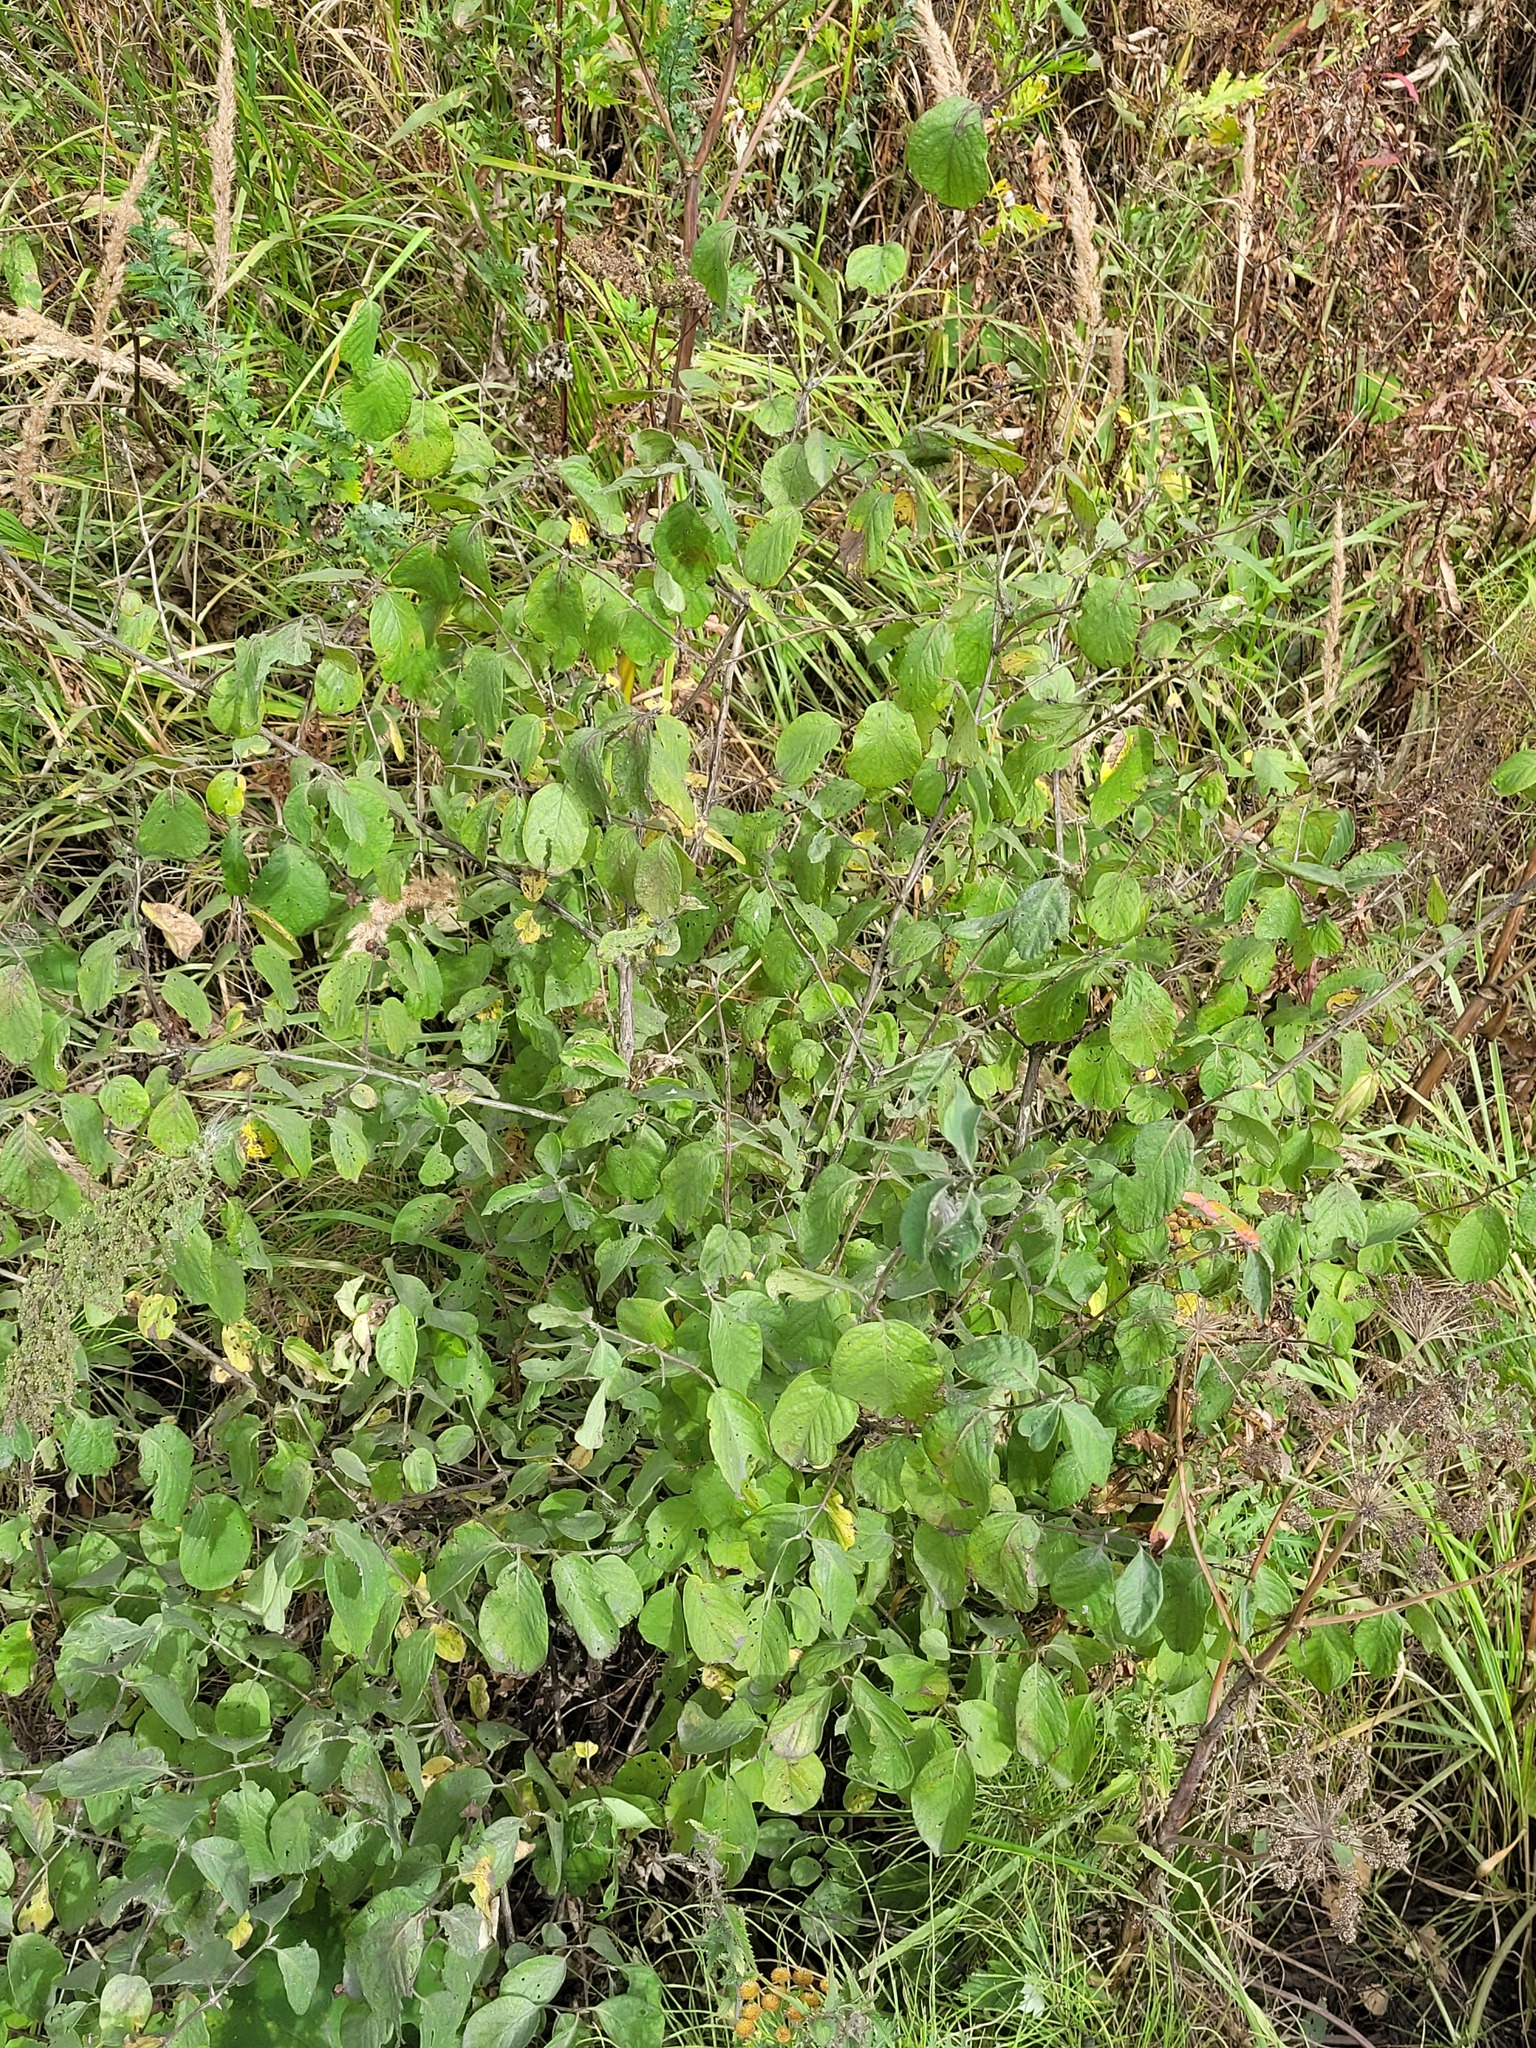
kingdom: Plantae
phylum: Tracheophyta
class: Magnoliopsida
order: Dipsacales
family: Caprifoliaceae
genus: Lonicera
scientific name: Lonicera xylosteum
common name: Fly honeysuckle
